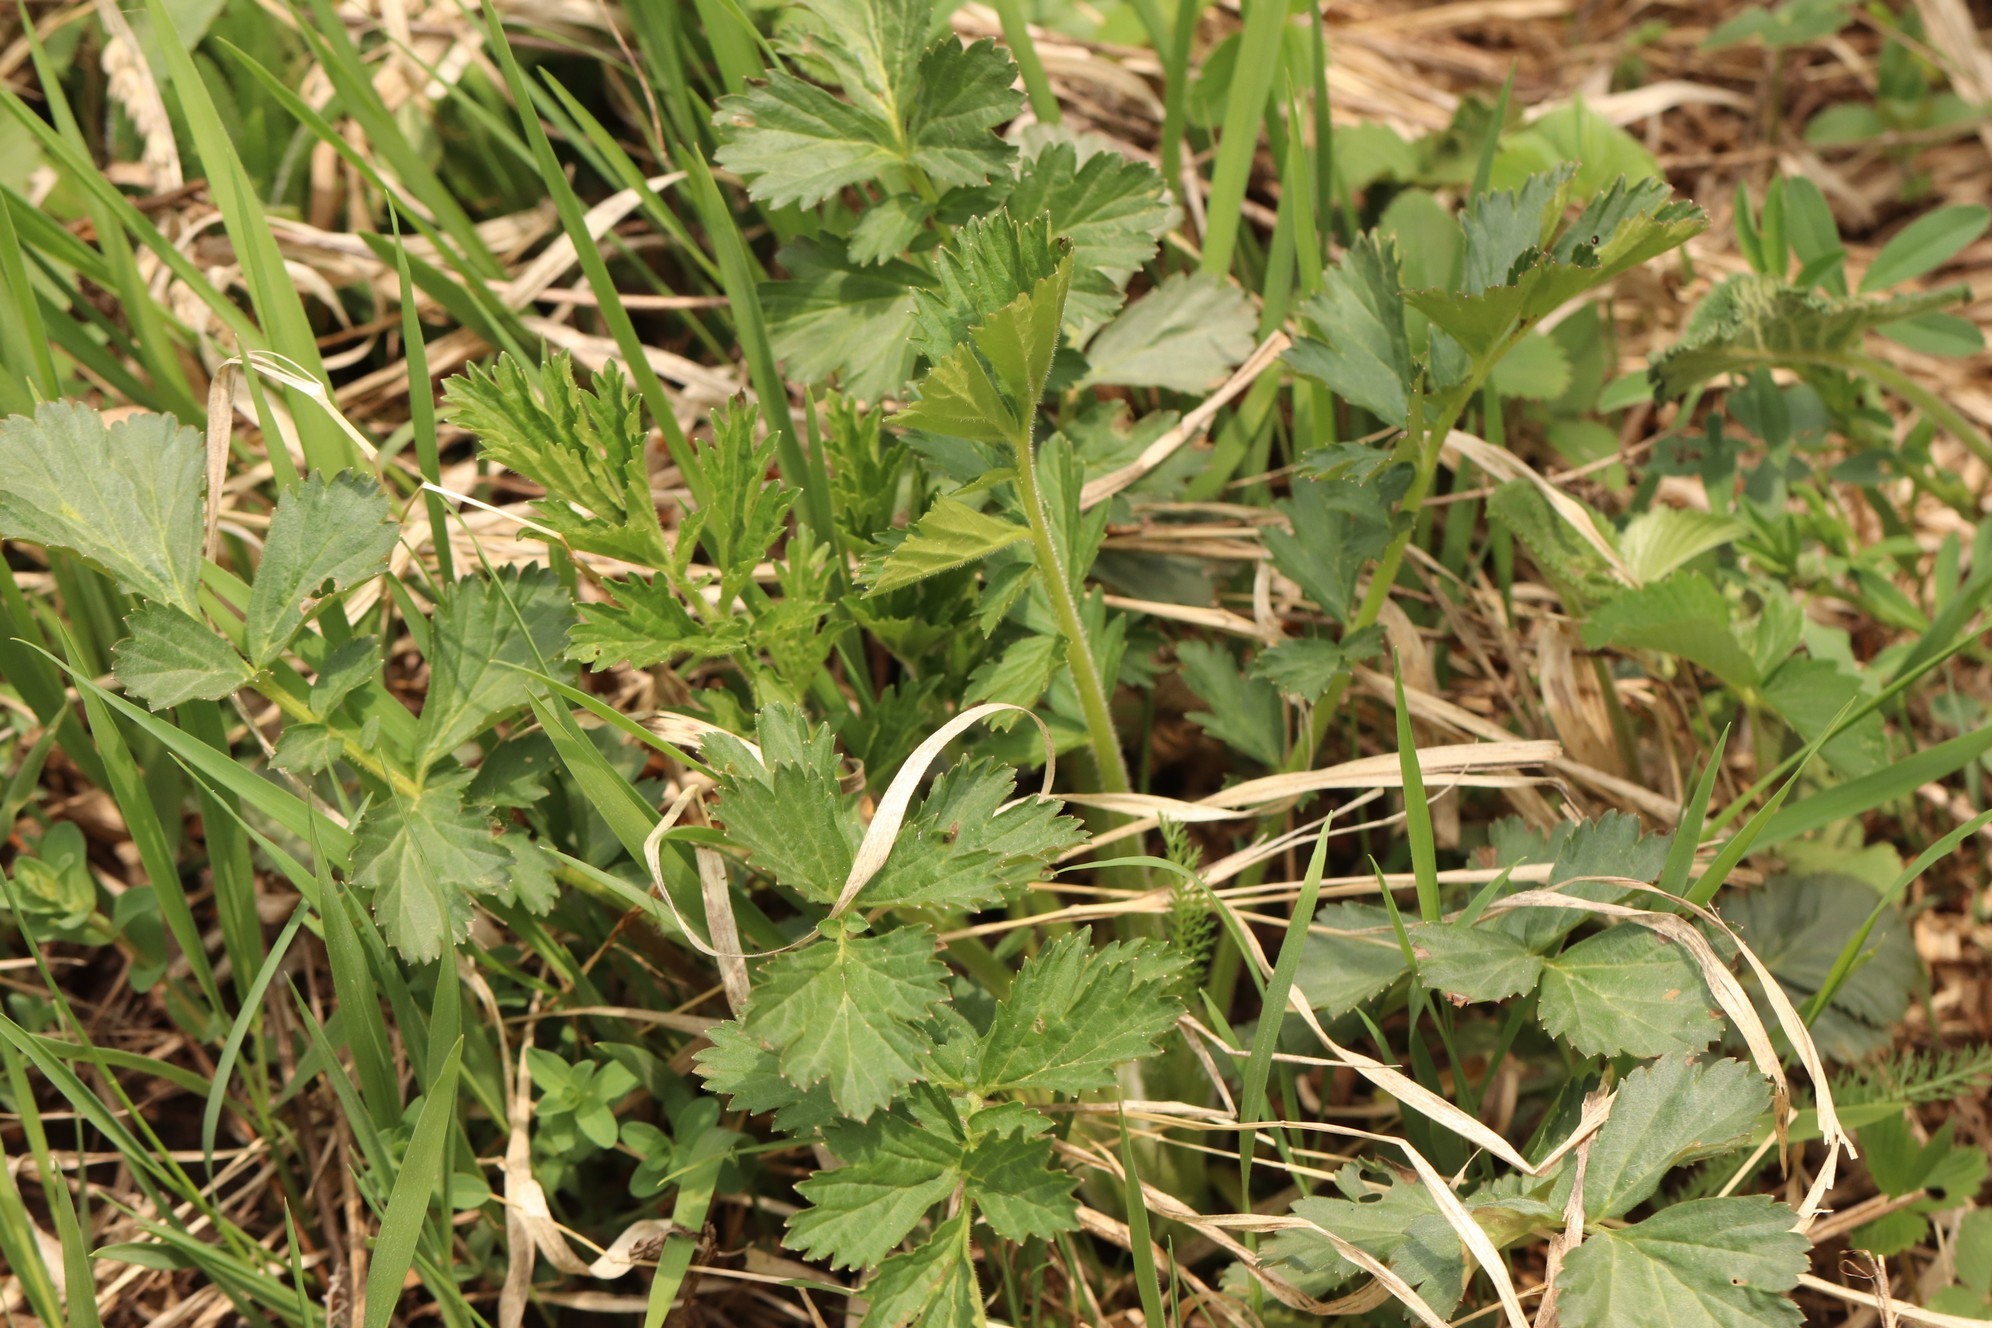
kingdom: Plantae
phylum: Tracheophyta
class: Magnoliopsida
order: Rosales
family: Rosaceae
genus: Geum
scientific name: Geum aleppicum
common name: Yellow avens
